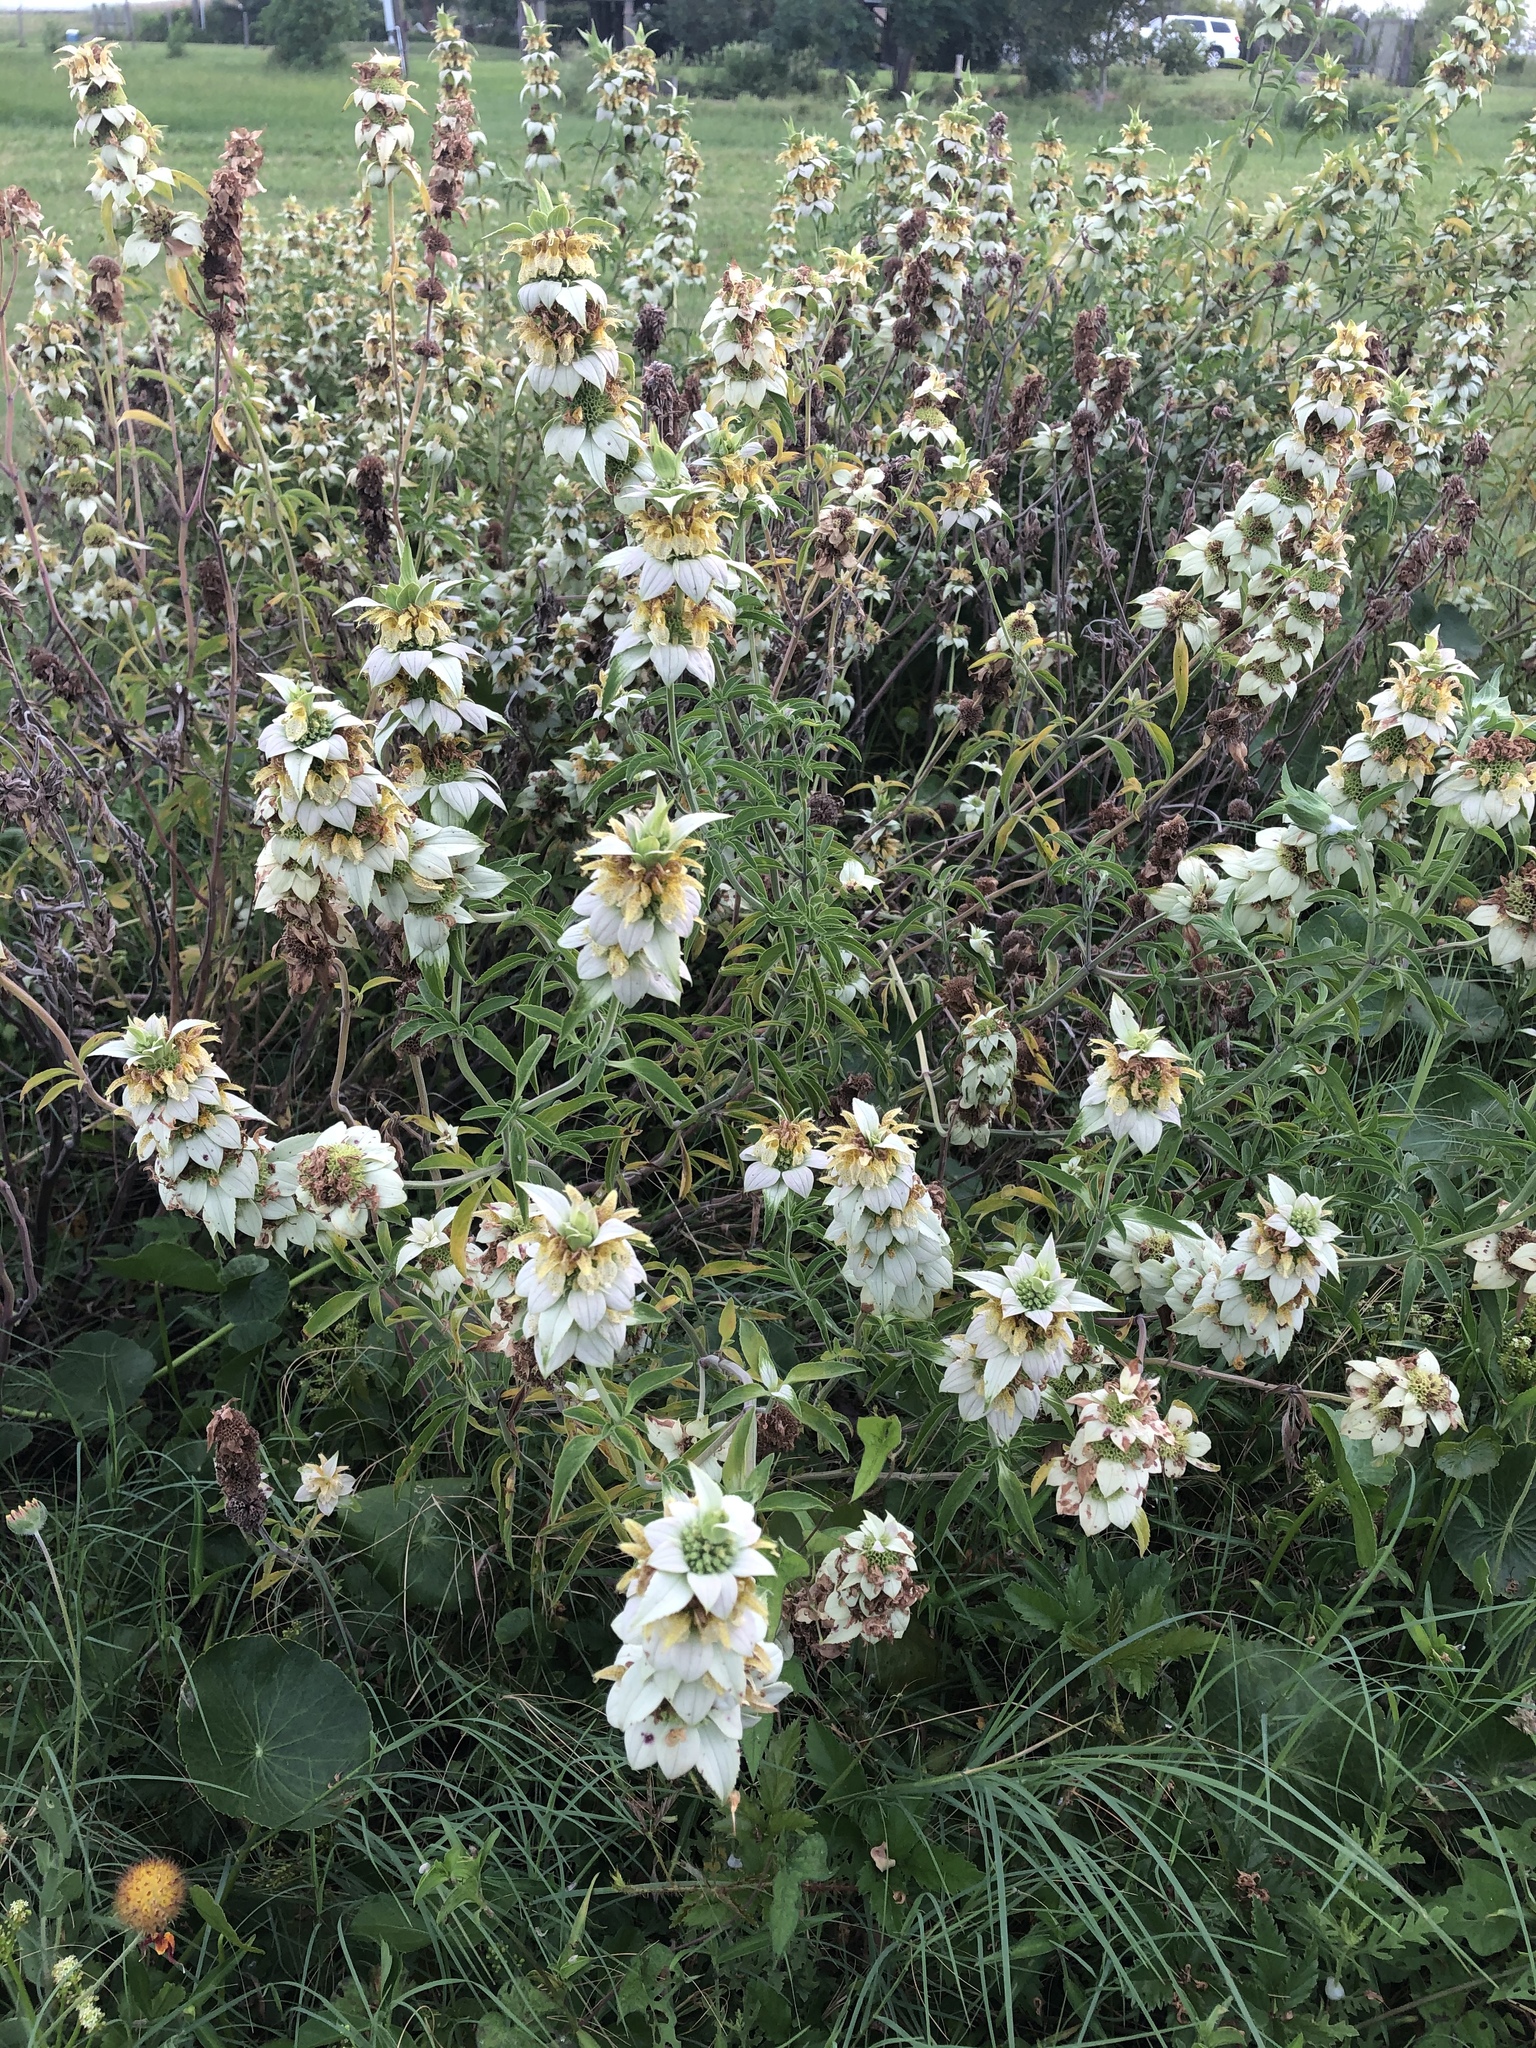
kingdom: Plantae
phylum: Tracheophyta
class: Magnoliopsida
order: Lamiales
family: Lamiaceae
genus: Monarda
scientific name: Monarda punctata
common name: Dotted monarda
